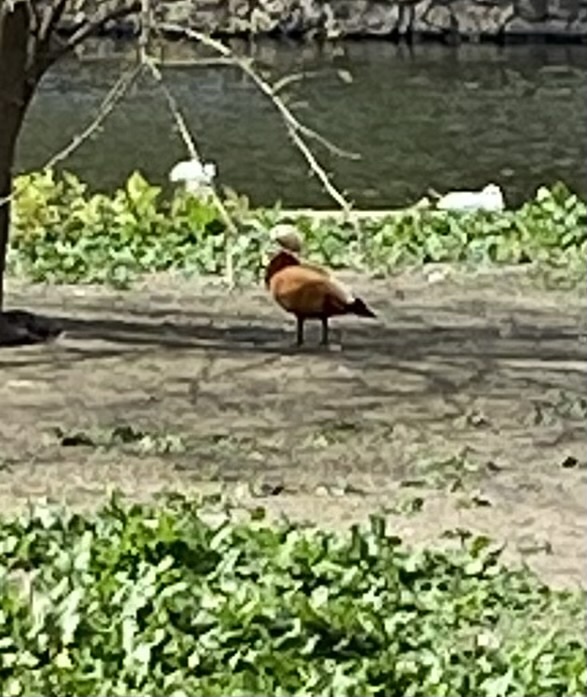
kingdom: Animalia
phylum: Chordata
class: Aves
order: Anseriformes
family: Anatidae
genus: Tadorna
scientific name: Tadorna ferruginea
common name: Ruddy shelduck
